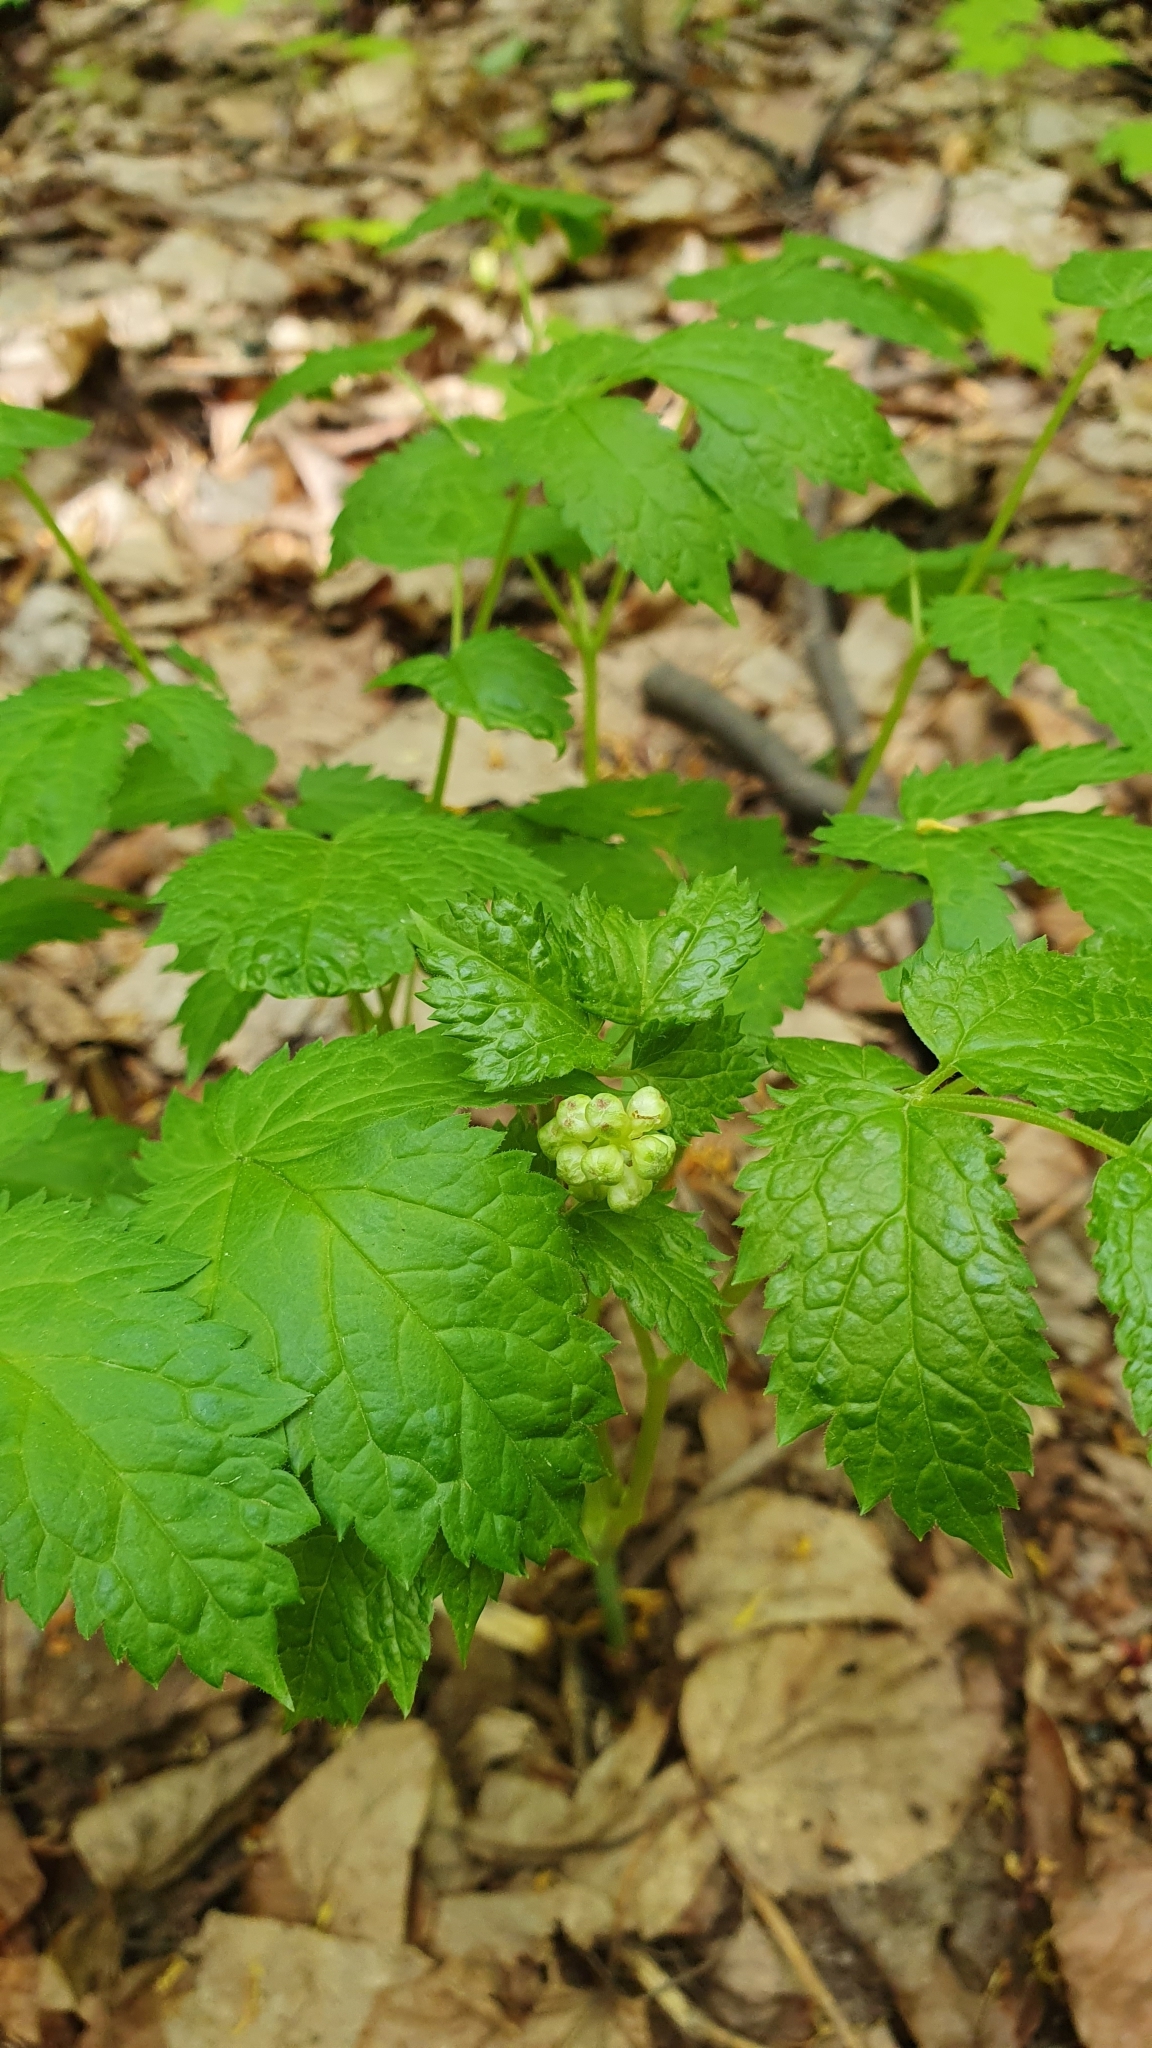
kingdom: Plantae
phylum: Tracheophyta
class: Magnoliopsida
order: Ranunculales
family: Ranunculaceae
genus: Actaea
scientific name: Actaea spicata
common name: Baneberry
